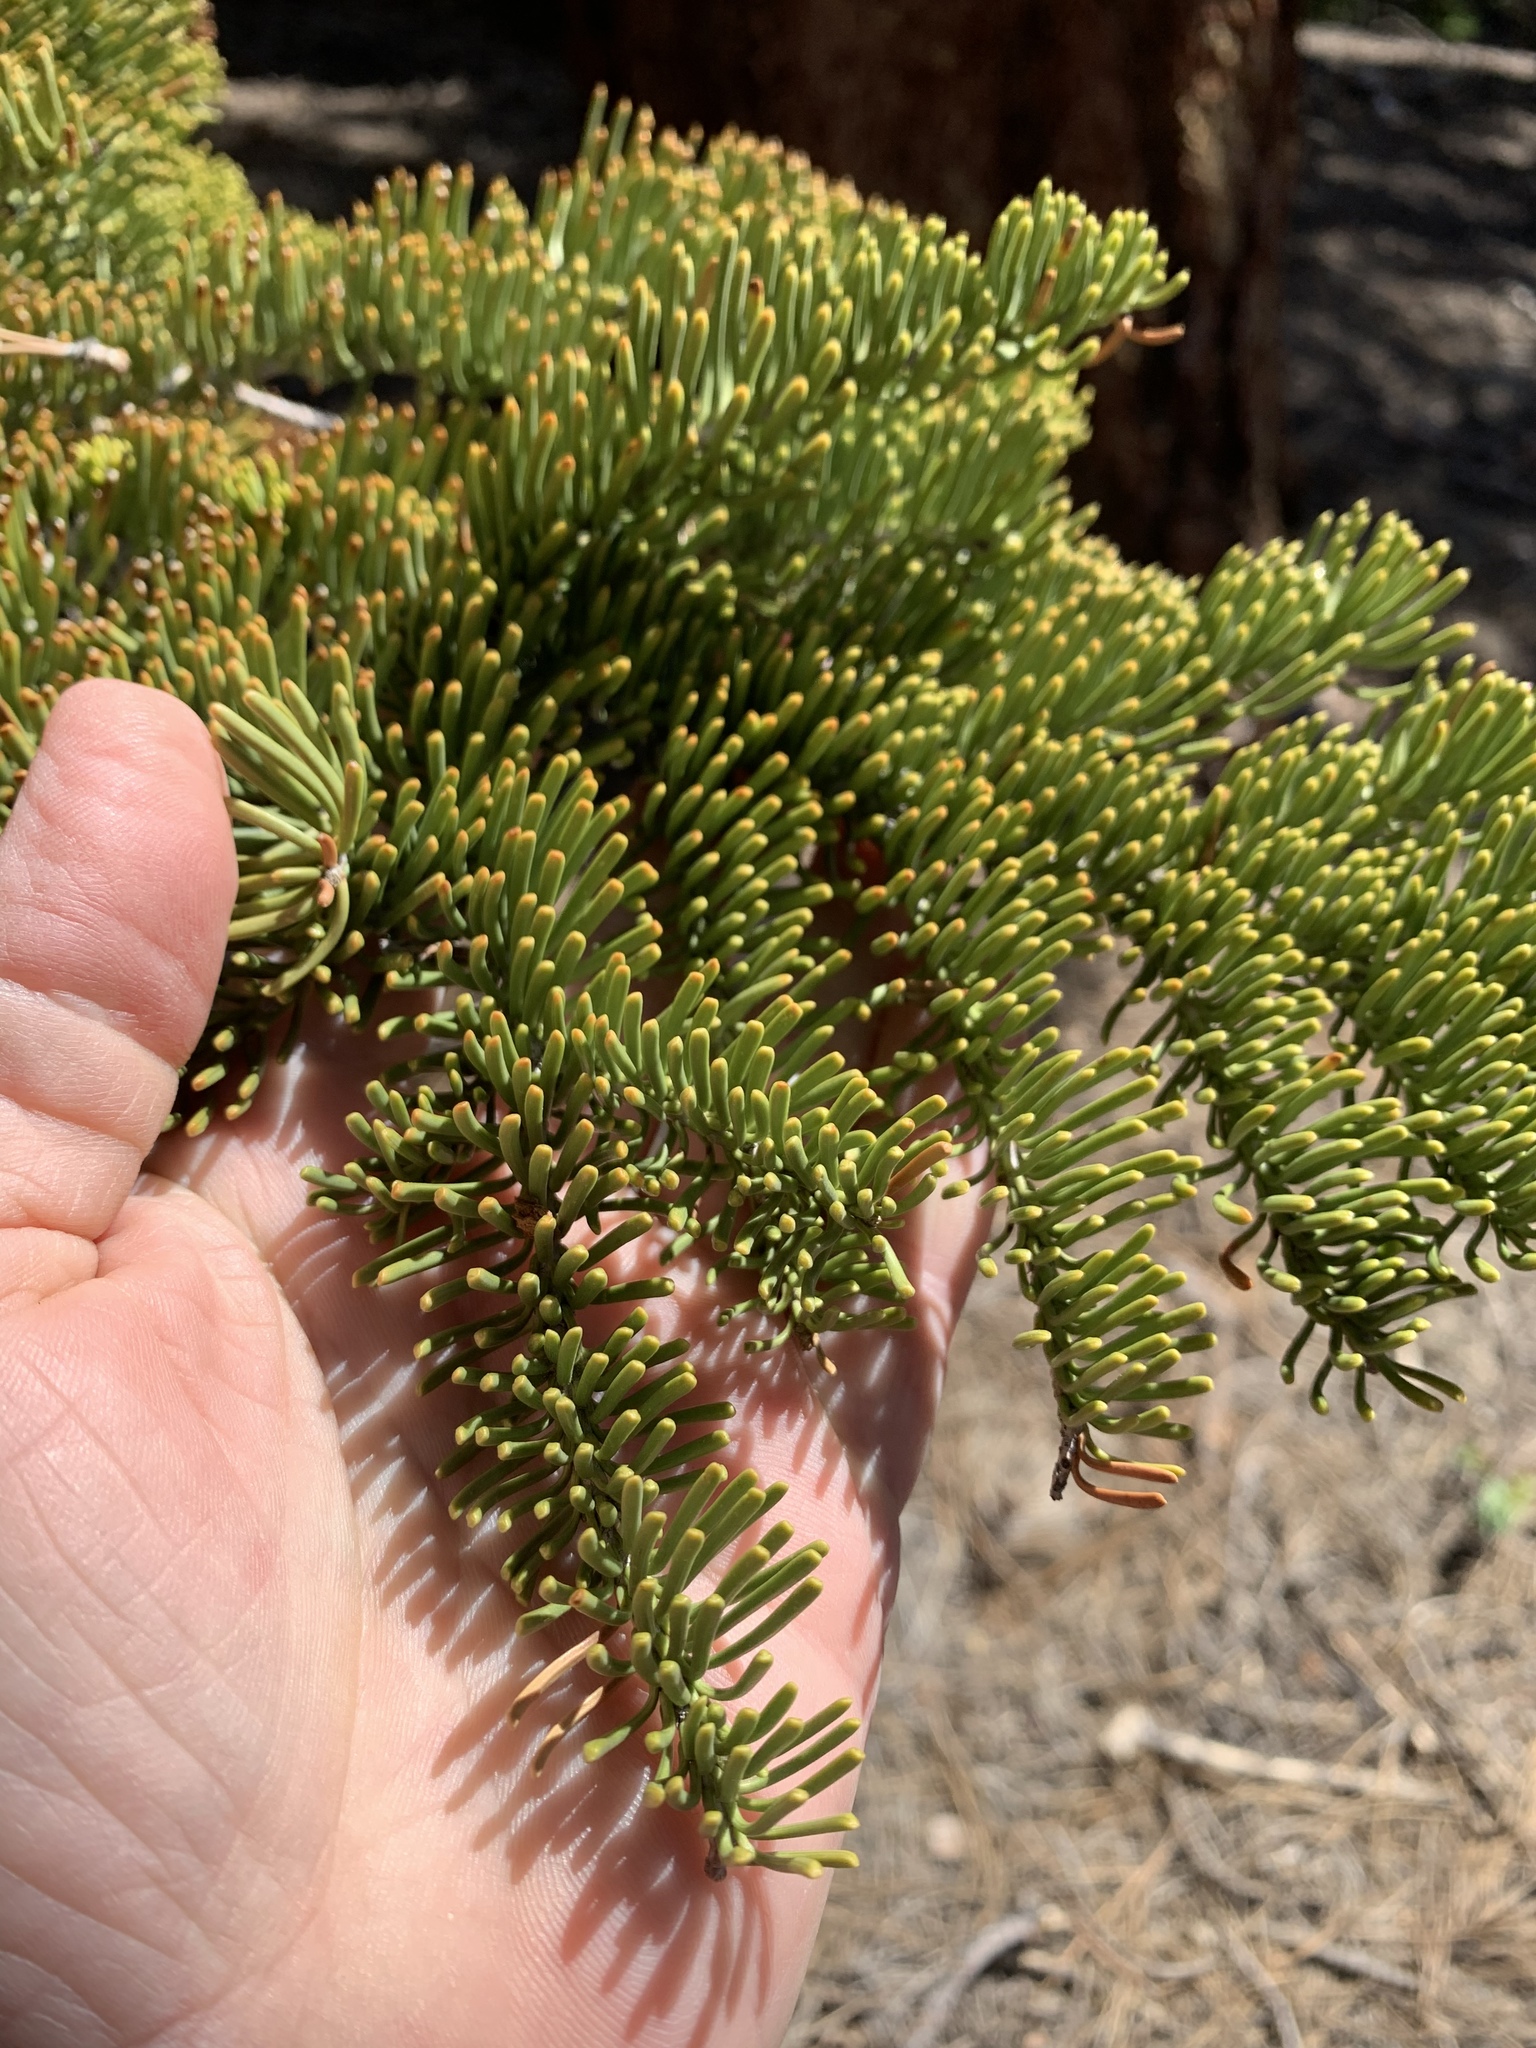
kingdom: Plantae
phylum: Tracheophyta
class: Pinopsida
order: Pinales
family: Pinaceae
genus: Abies
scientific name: Abies magnifica bis
